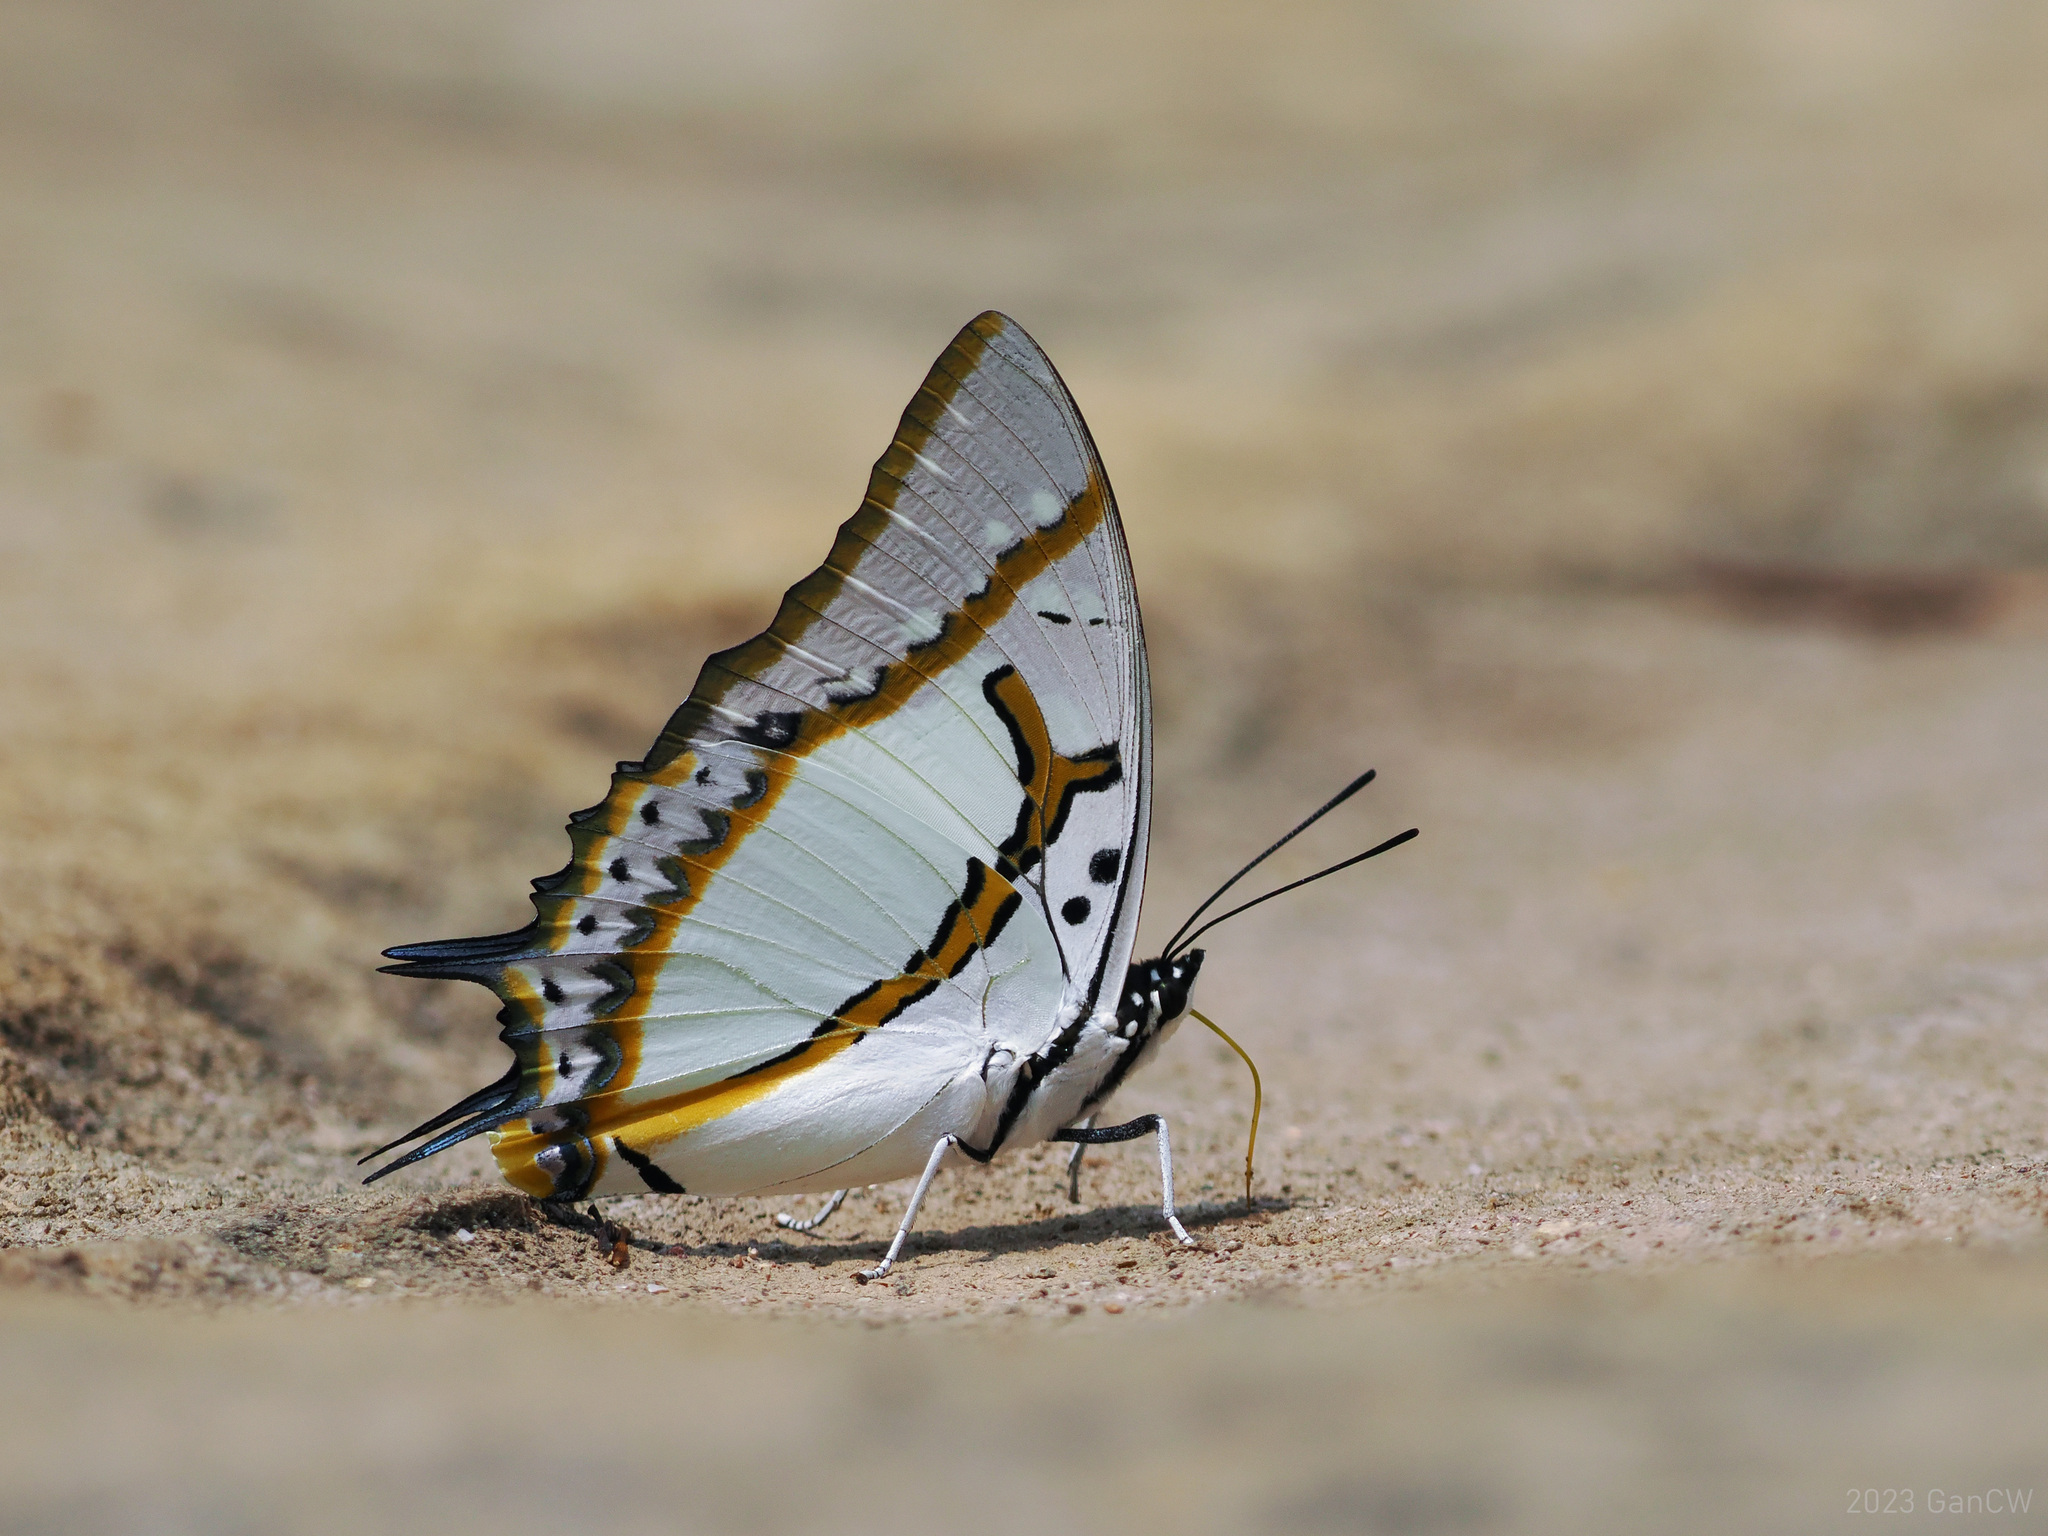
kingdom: Animalia
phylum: Arthropoda
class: Insecta
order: Lepidoptera
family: Nymphalidae
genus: Polyura
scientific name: Polyura eudamippus
